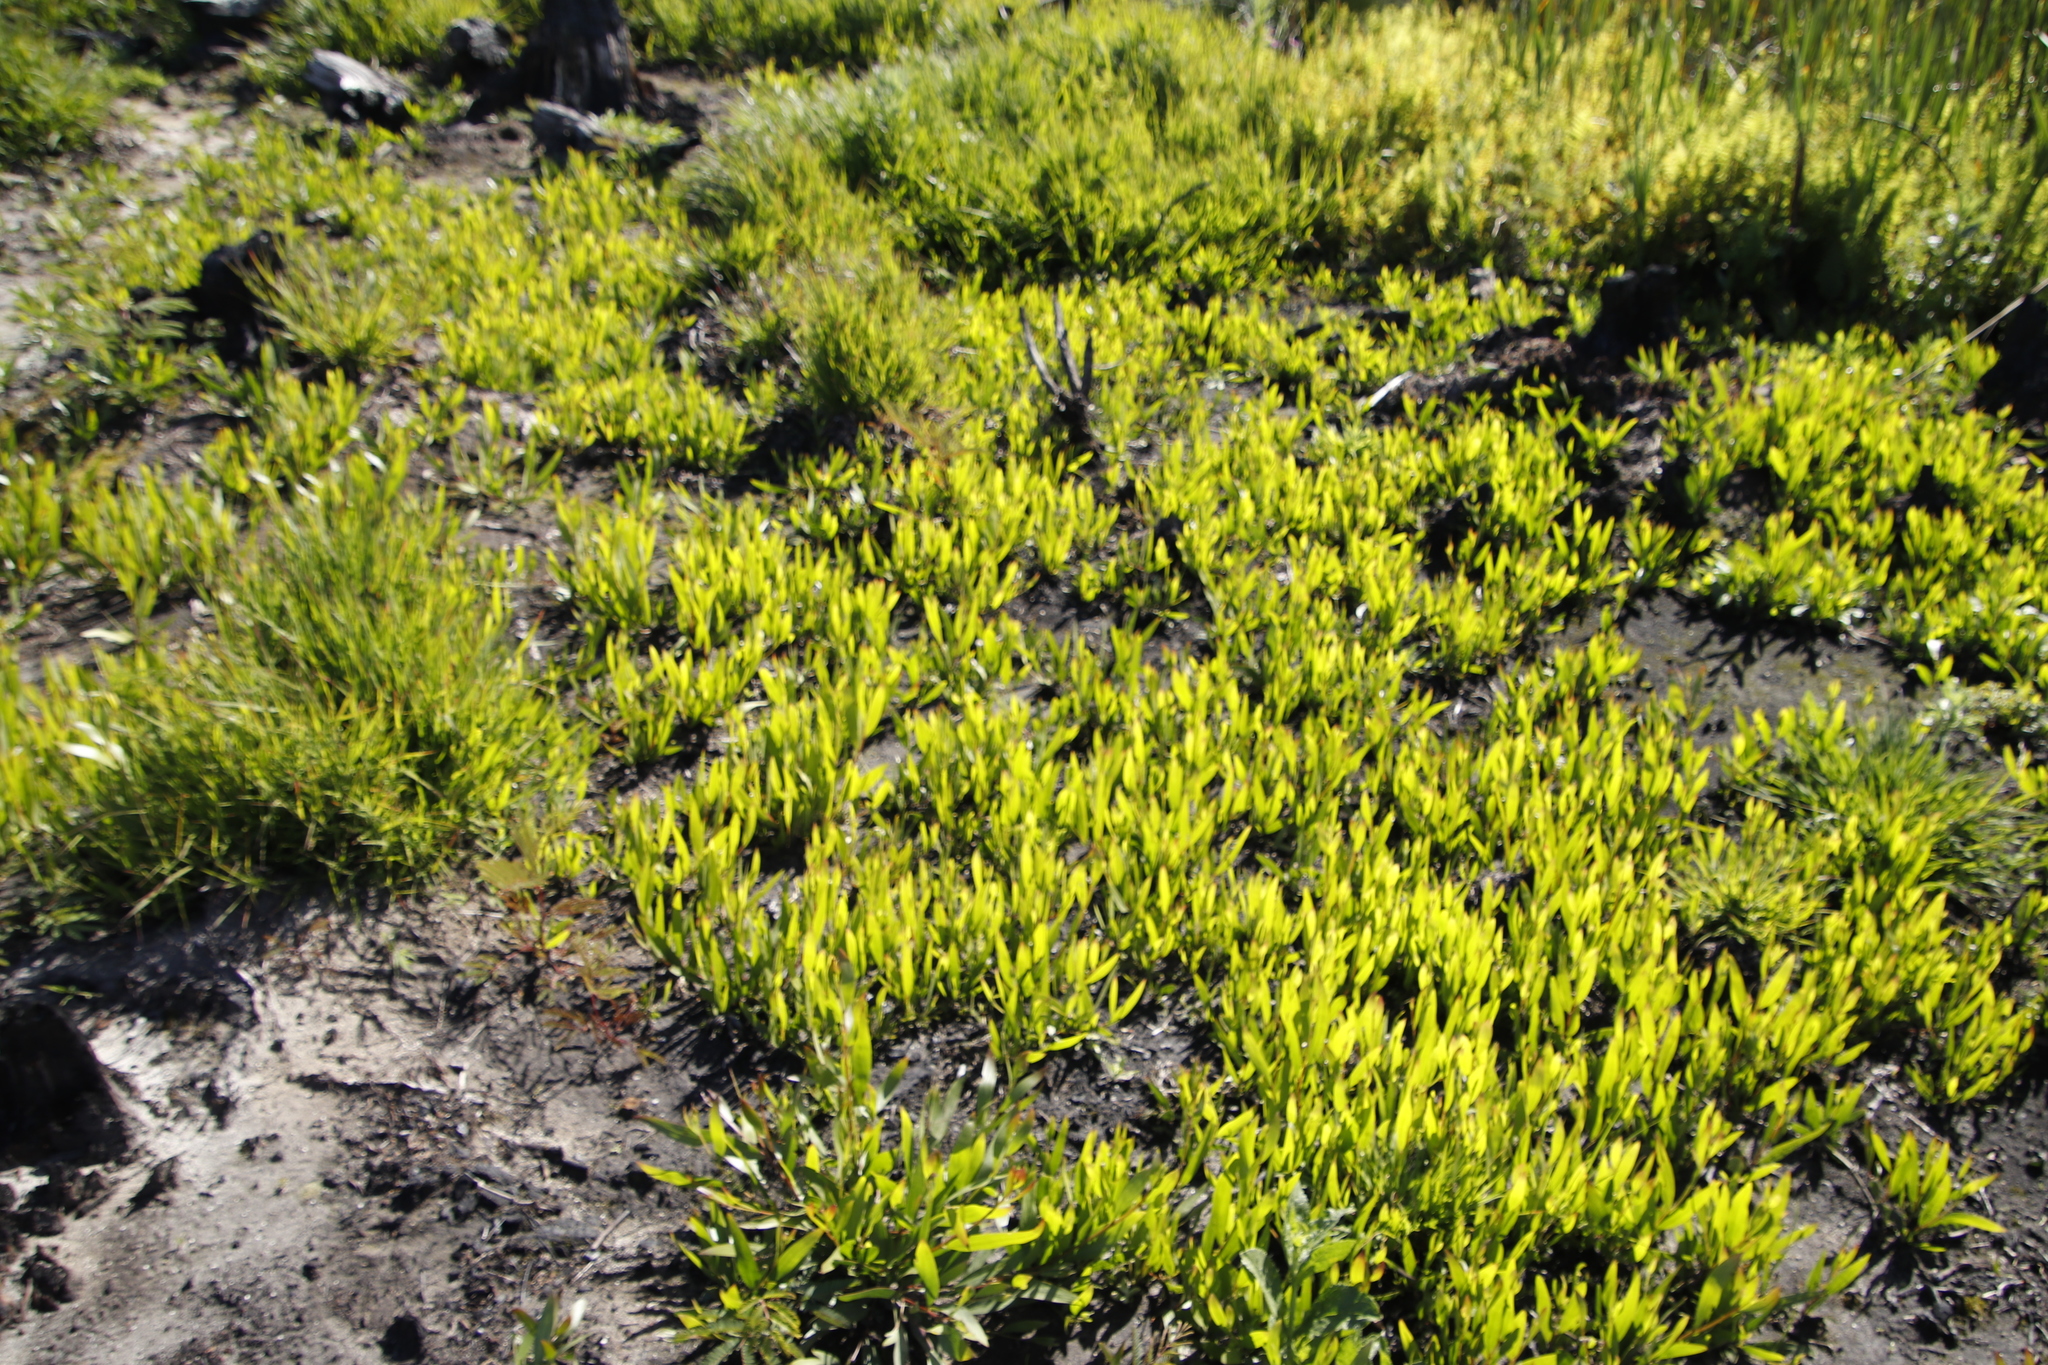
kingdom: Plantae
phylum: Tracheophyta
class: Magnoliopsida
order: Fabales
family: Fabaceae
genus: Acacia
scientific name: Acacia longifolia
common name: Sydney golden wattle
